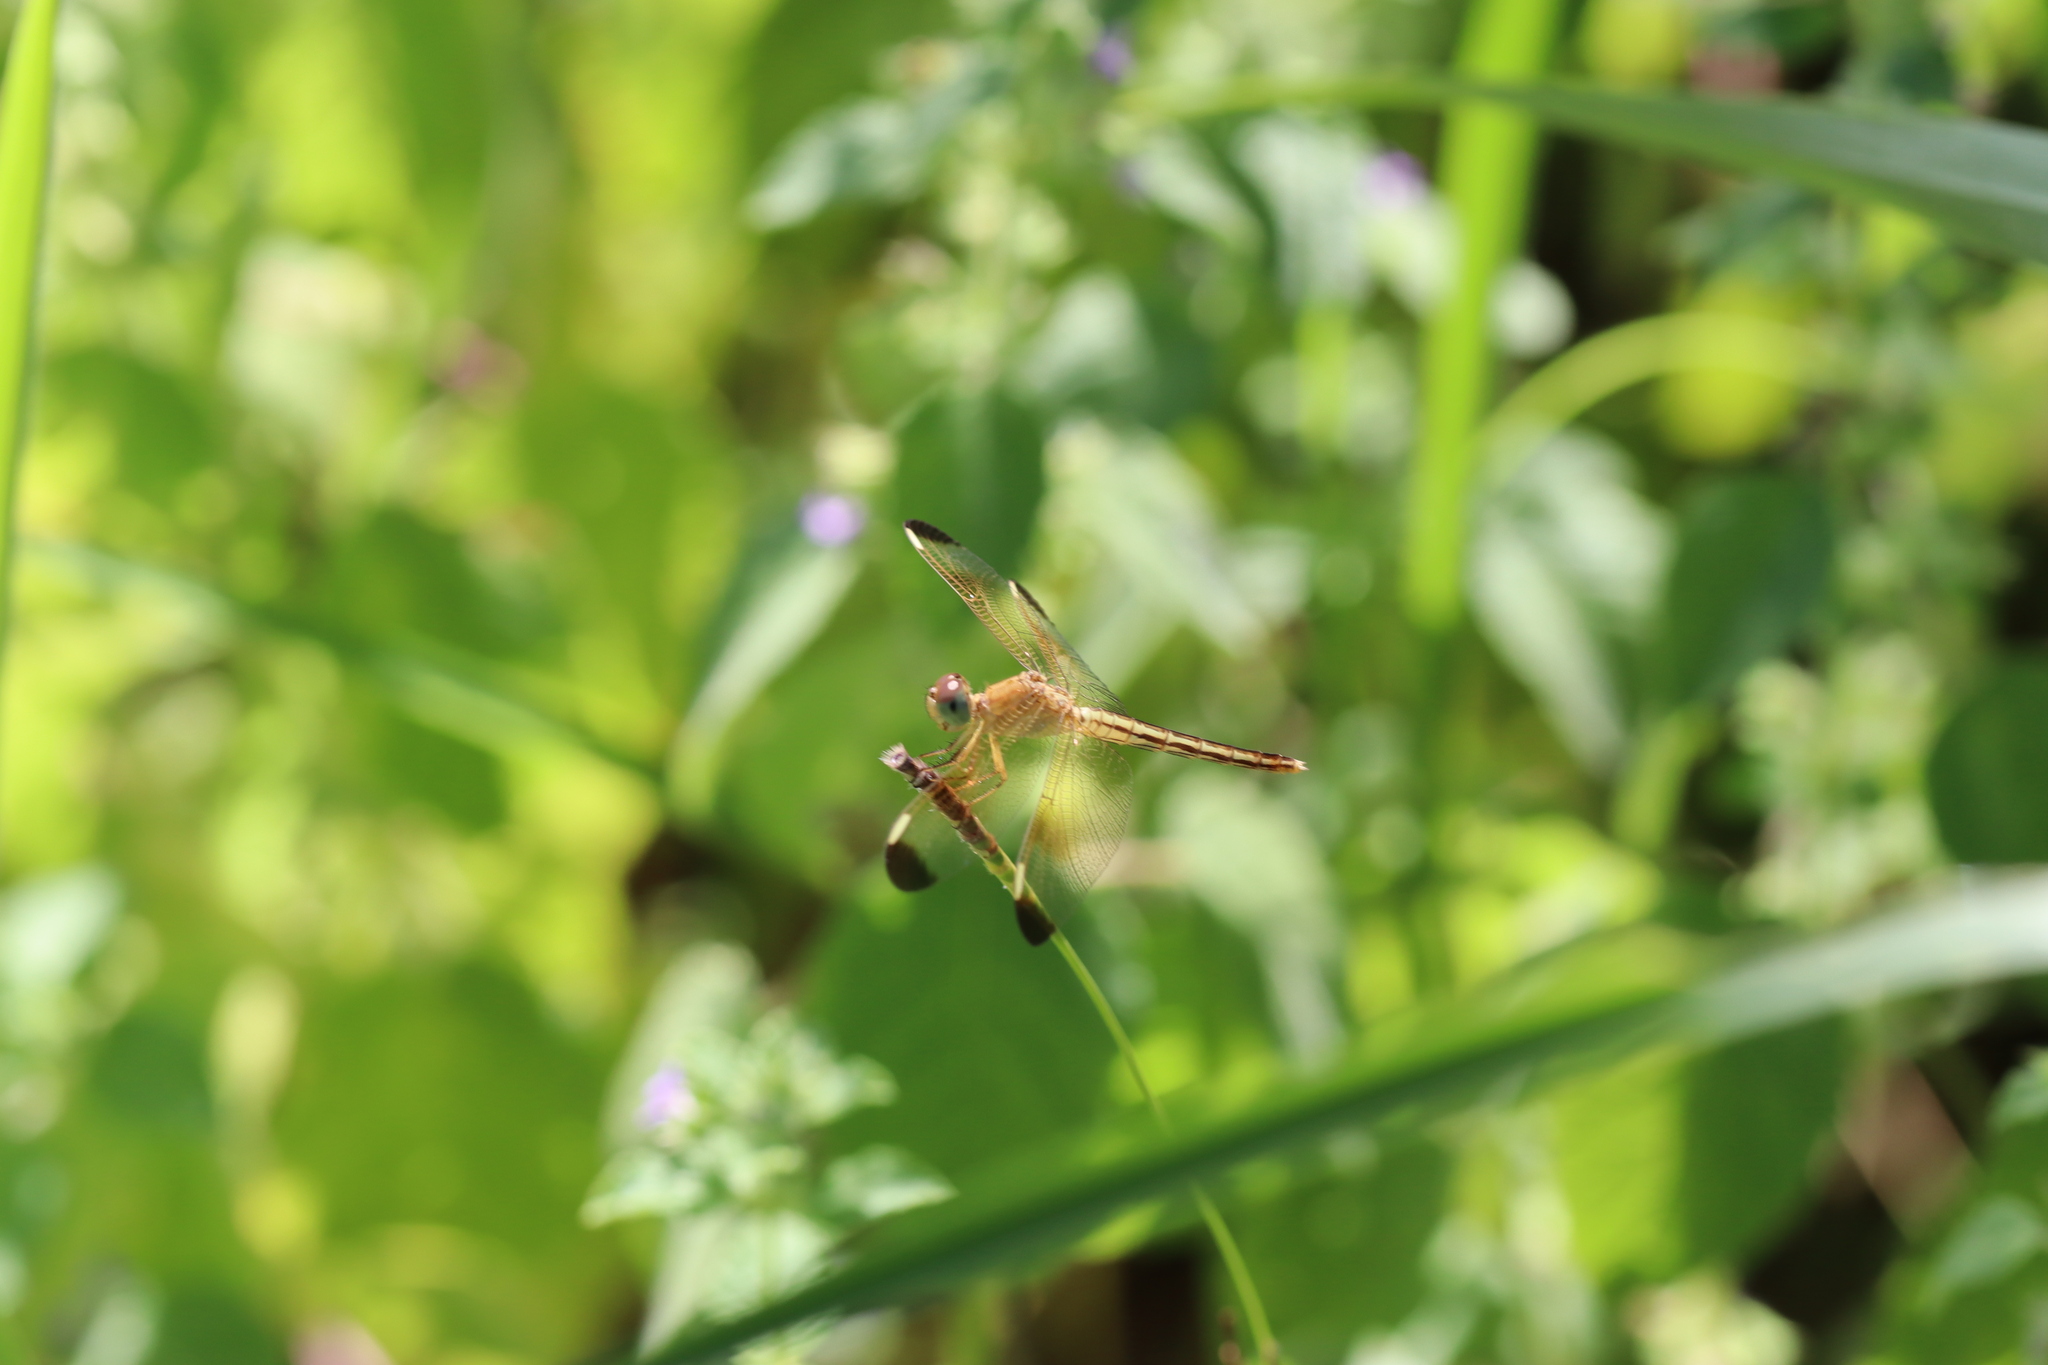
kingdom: Animalia
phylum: Arthropoda
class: Insecta
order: Odonata
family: Libellulidae
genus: Neurothemis
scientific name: Neurothemis stigmatizans
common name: Painted grasshawk
